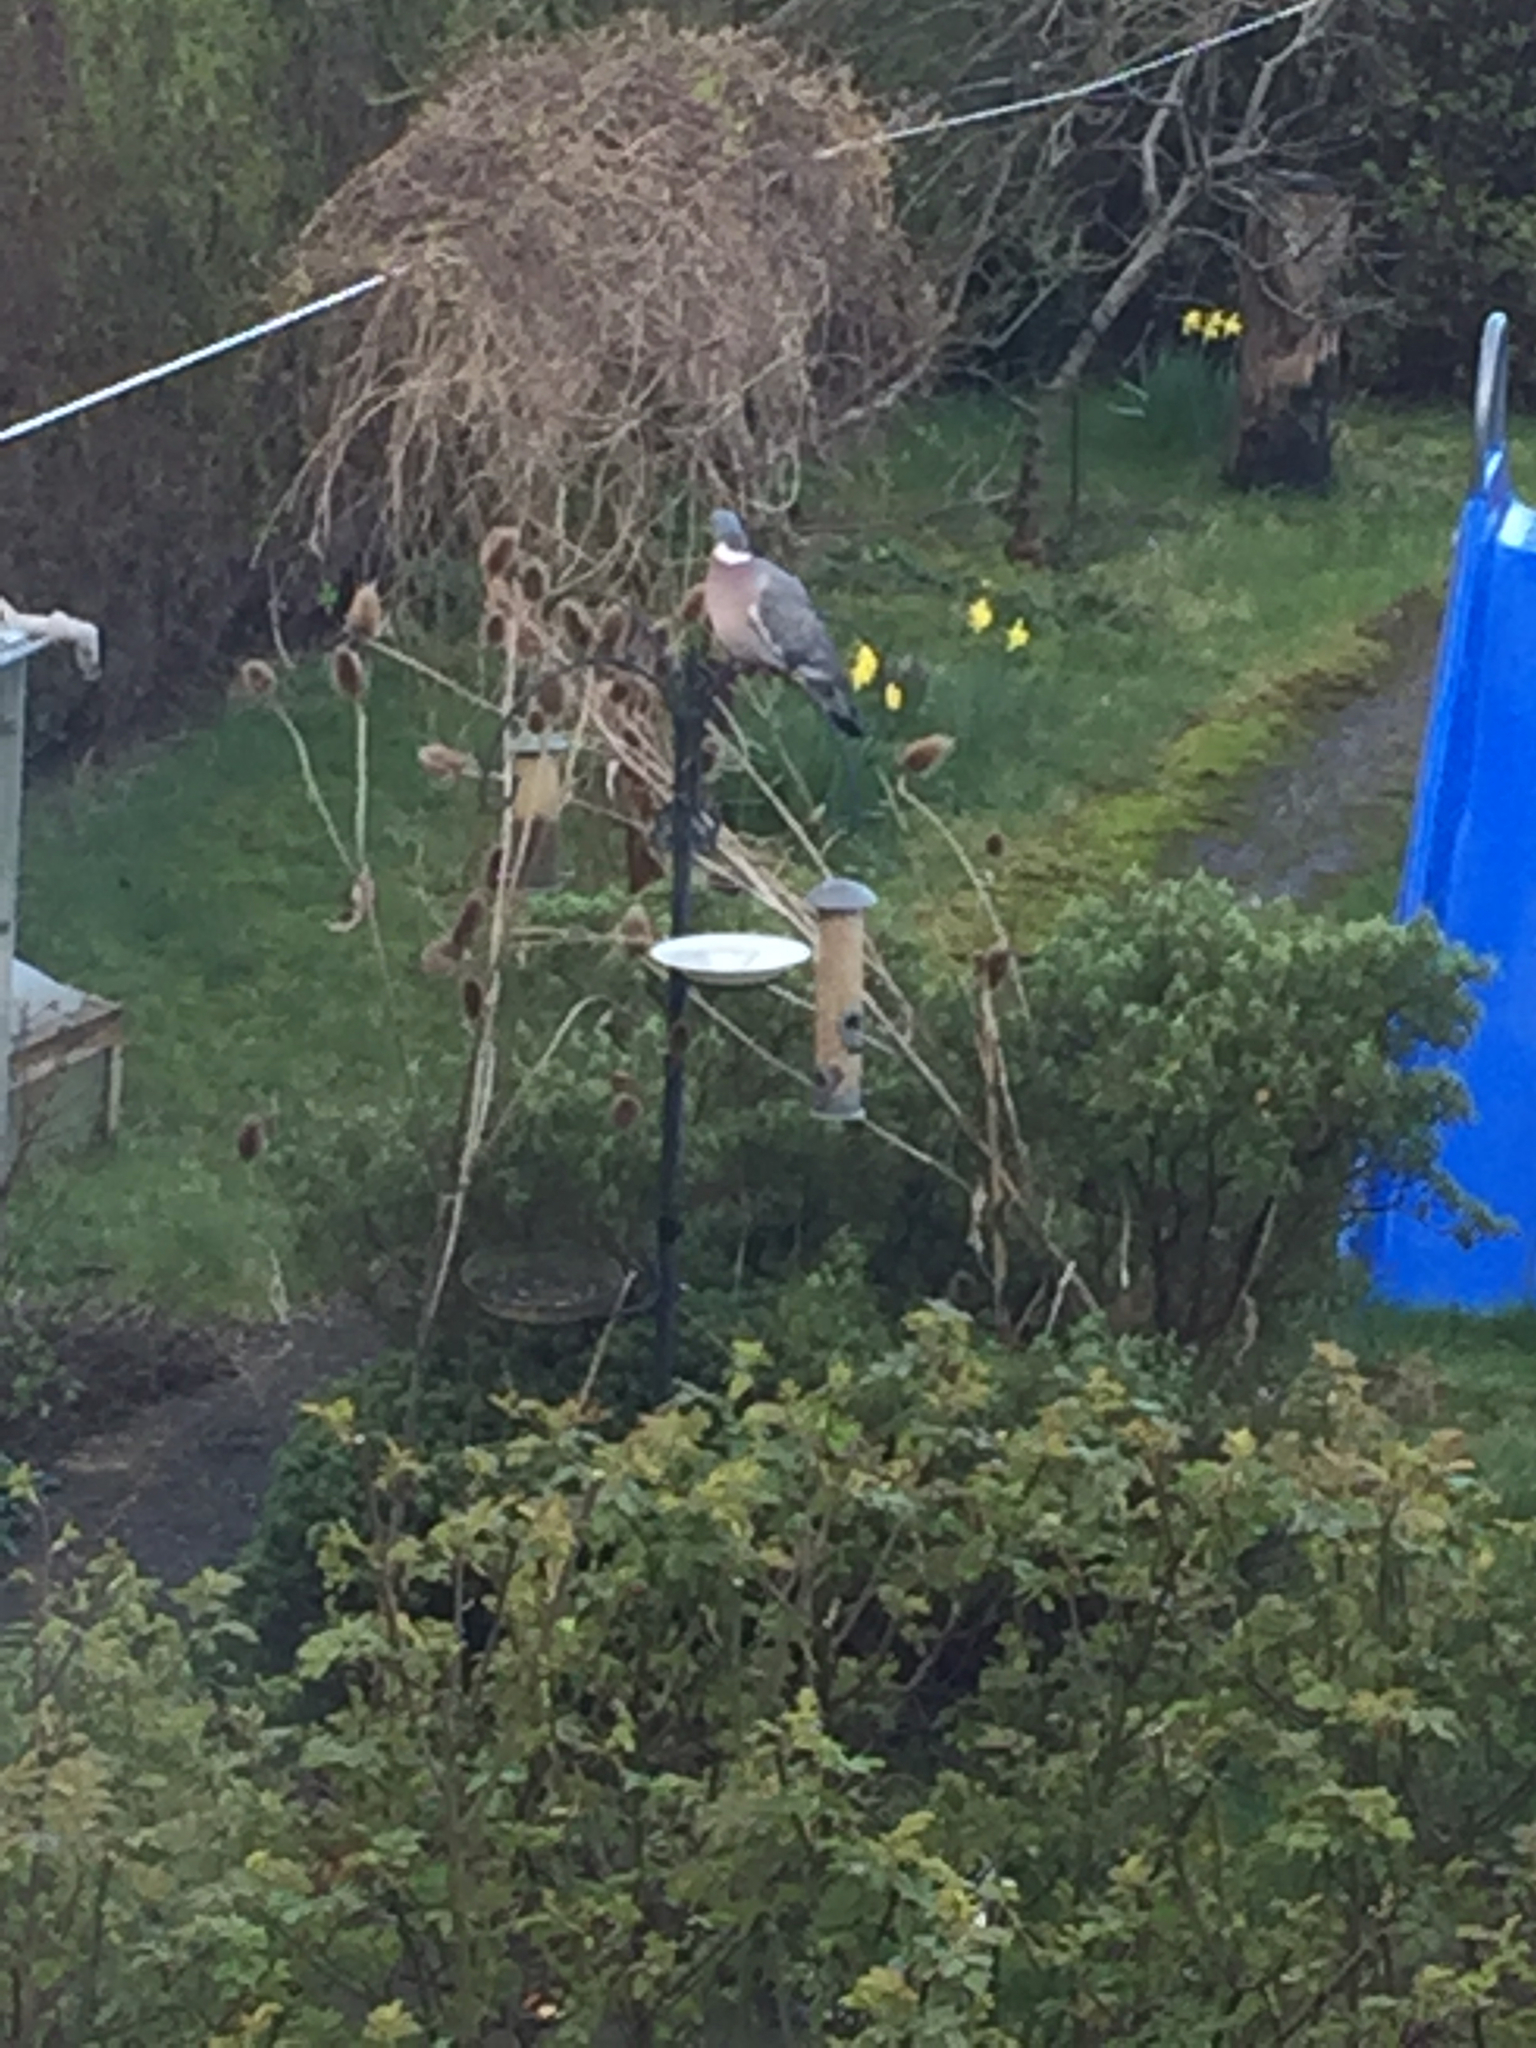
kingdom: Animalia
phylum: Chordata
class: Aves
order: Columbiformes
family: Columbidae
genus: Columba
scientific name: Columba palumbus
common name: Common wood pigeon
